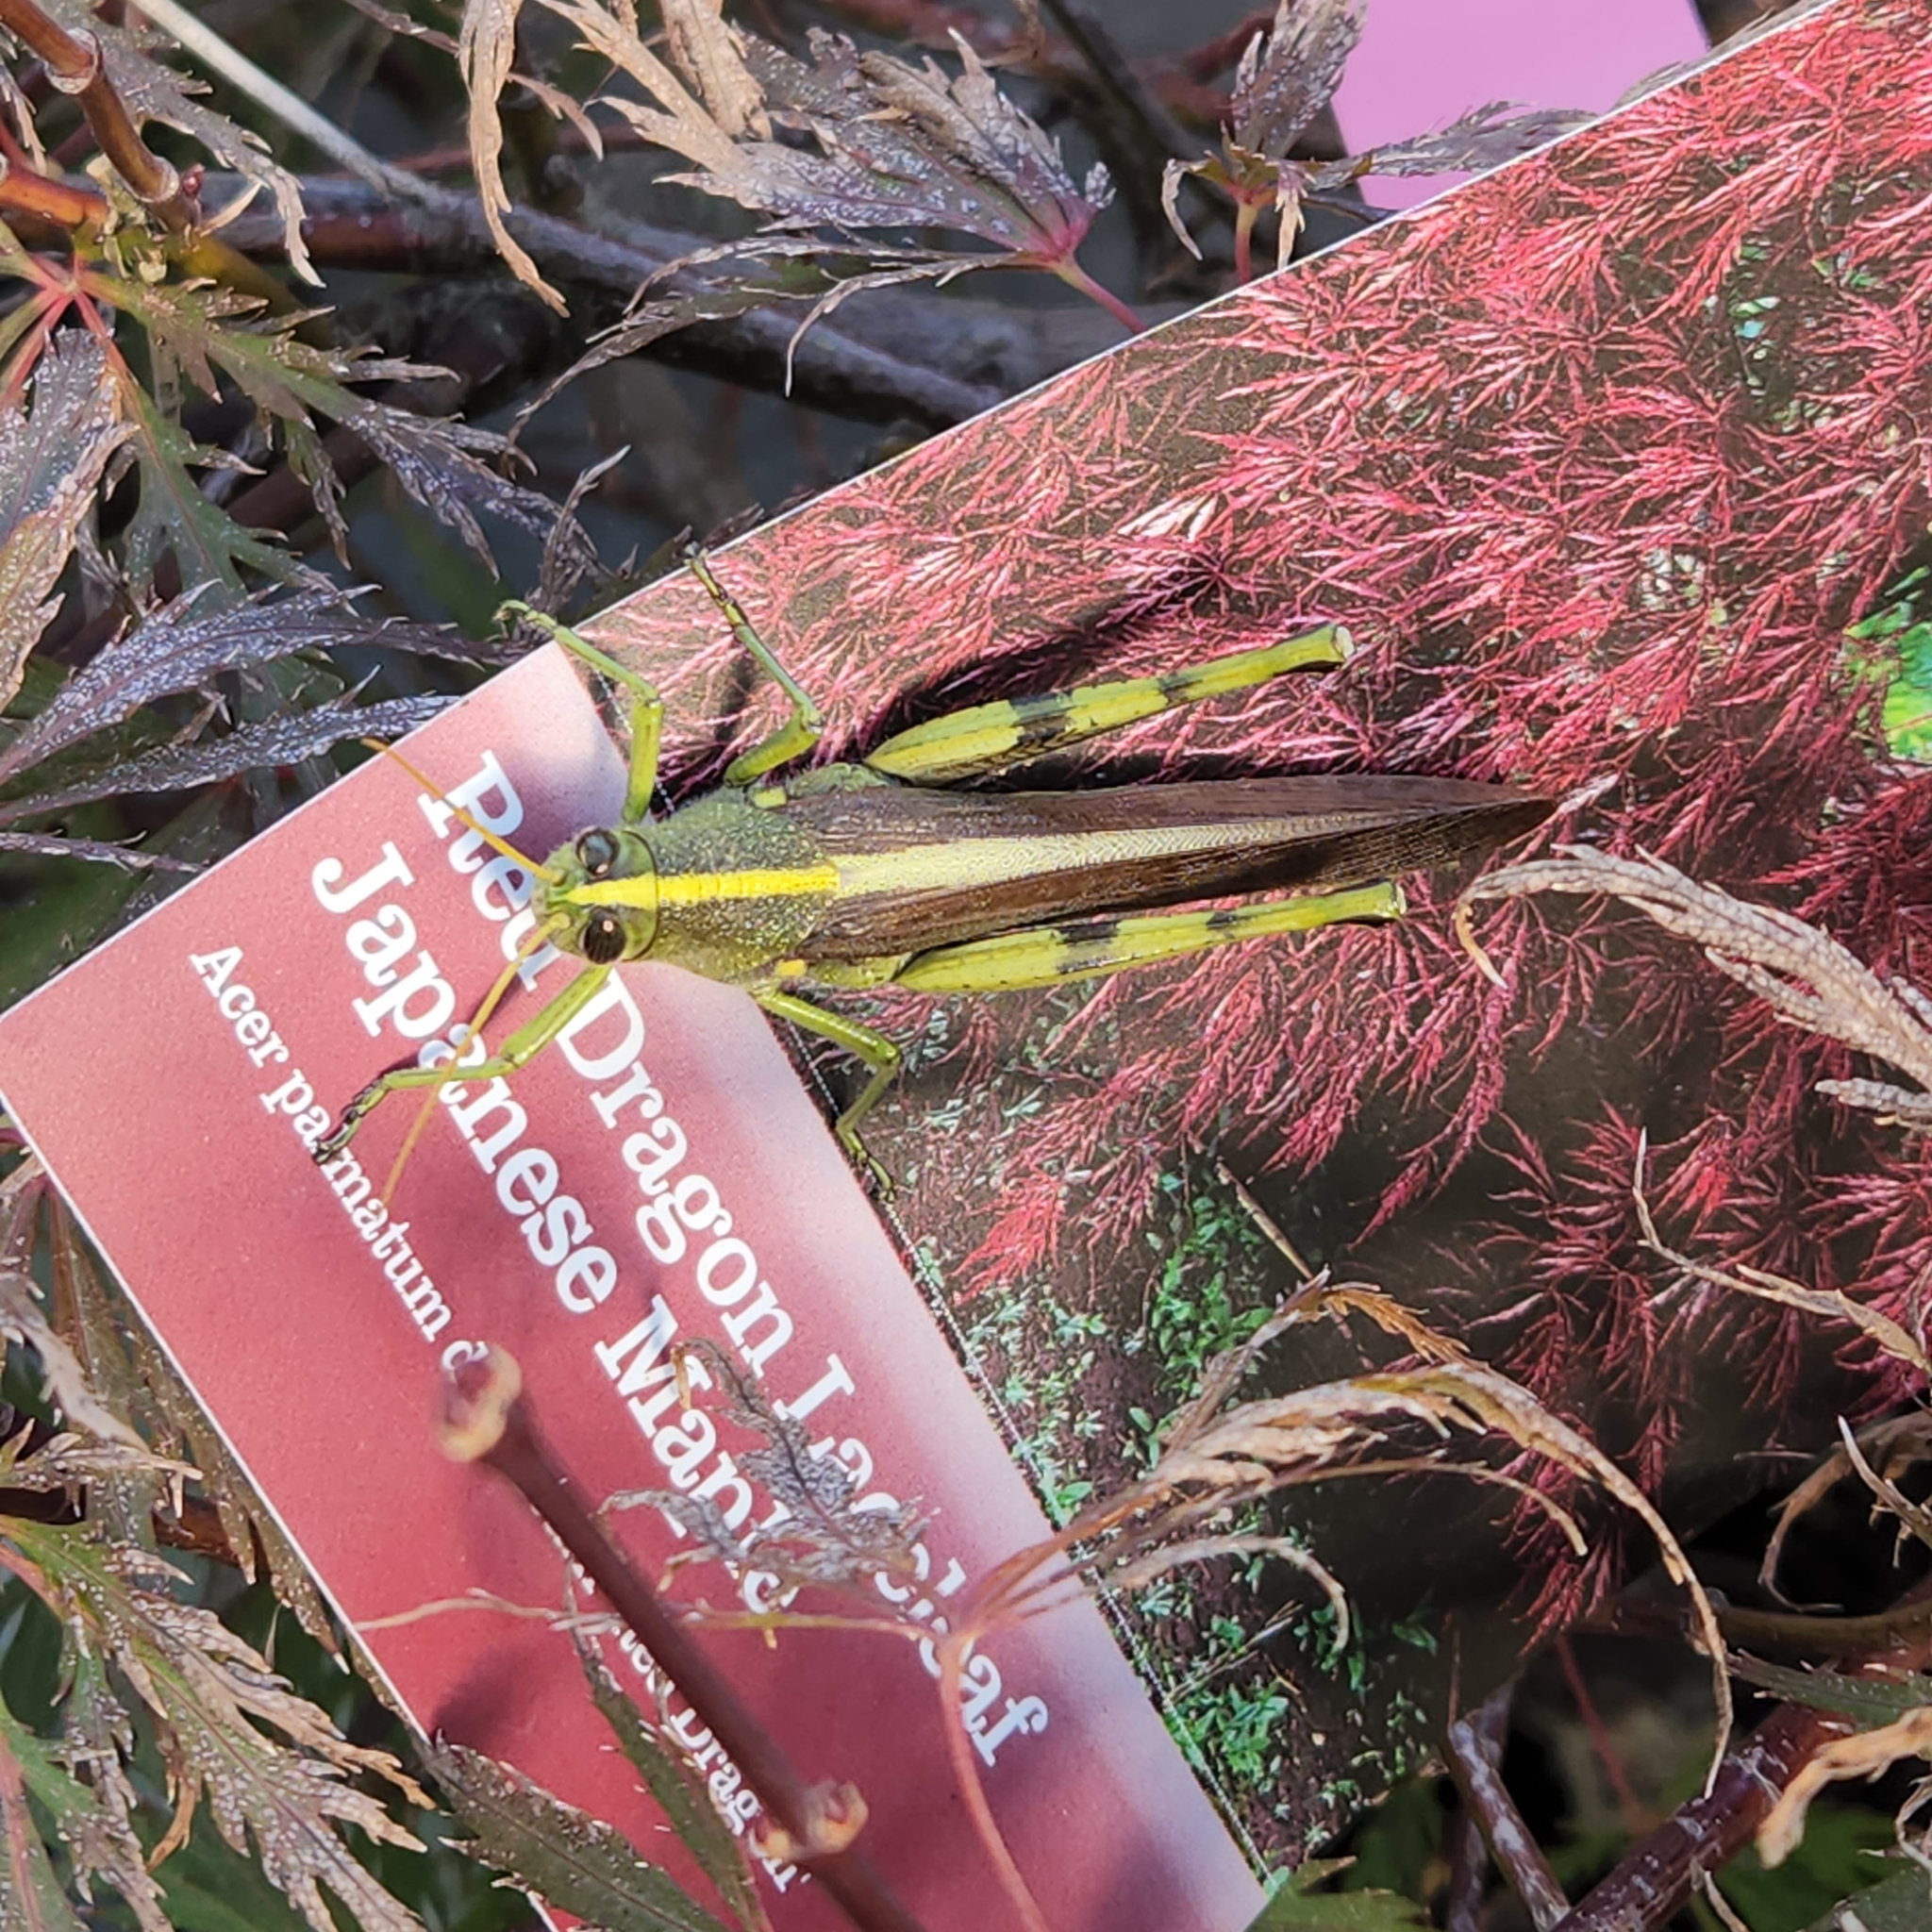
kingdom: Animalia
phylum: Arthropoda
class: Insecta
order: Orthoptera
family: Acrididae
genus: Schistocerca
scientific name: Schistocerca obscura
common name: Obscure bird grasshopper
